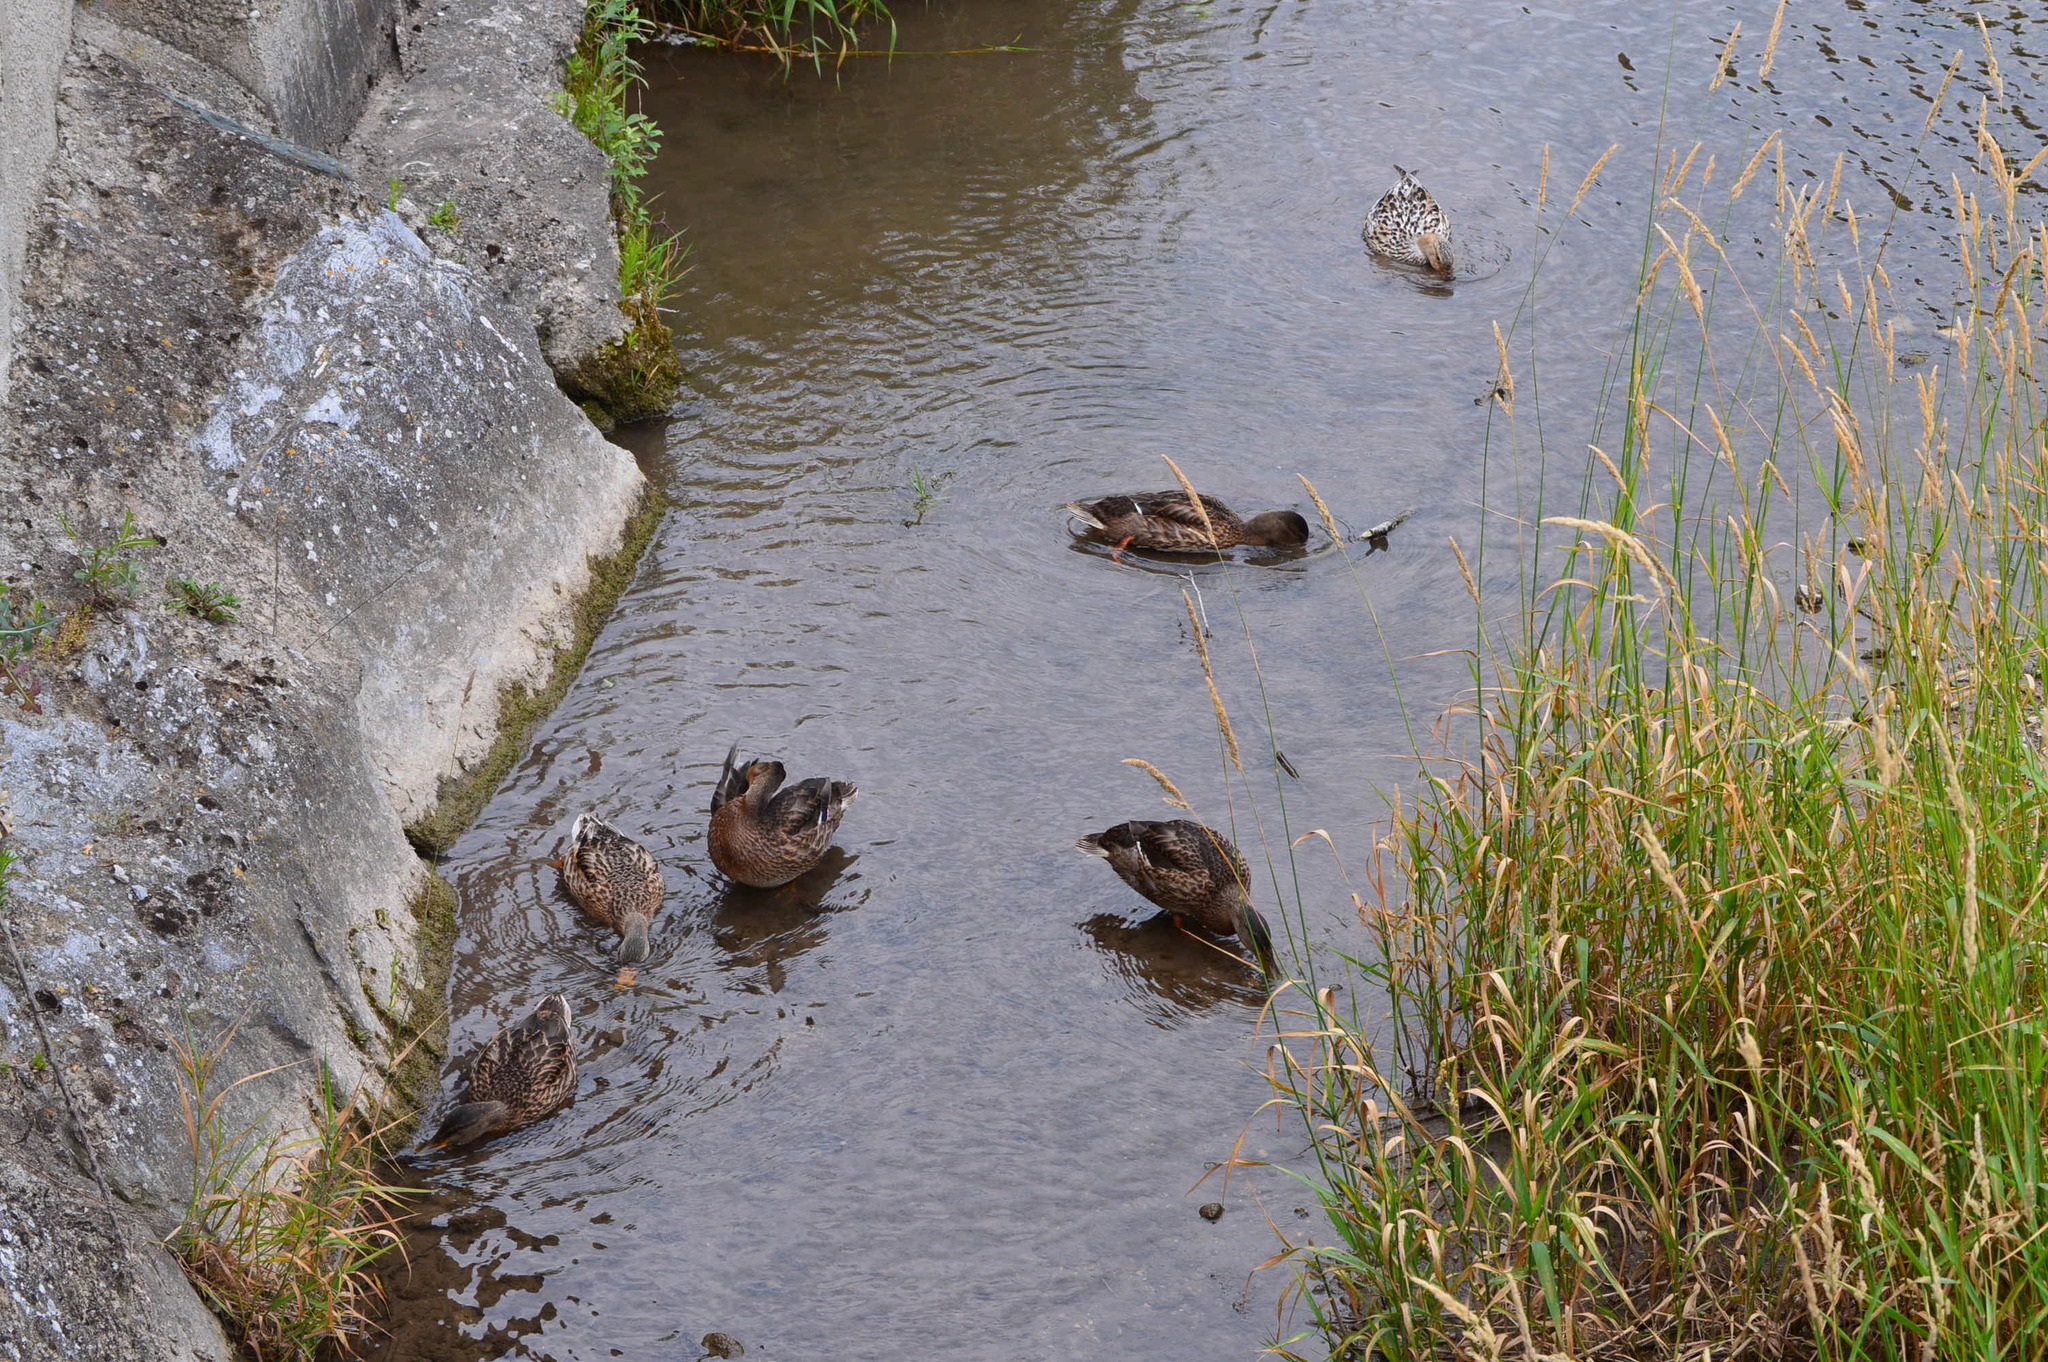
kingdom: Animalia
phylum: Chordata
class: Aves
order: Anseriformes
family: Anatidae
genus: Anas
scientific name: Anas platyrhynchos
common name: Mallard
